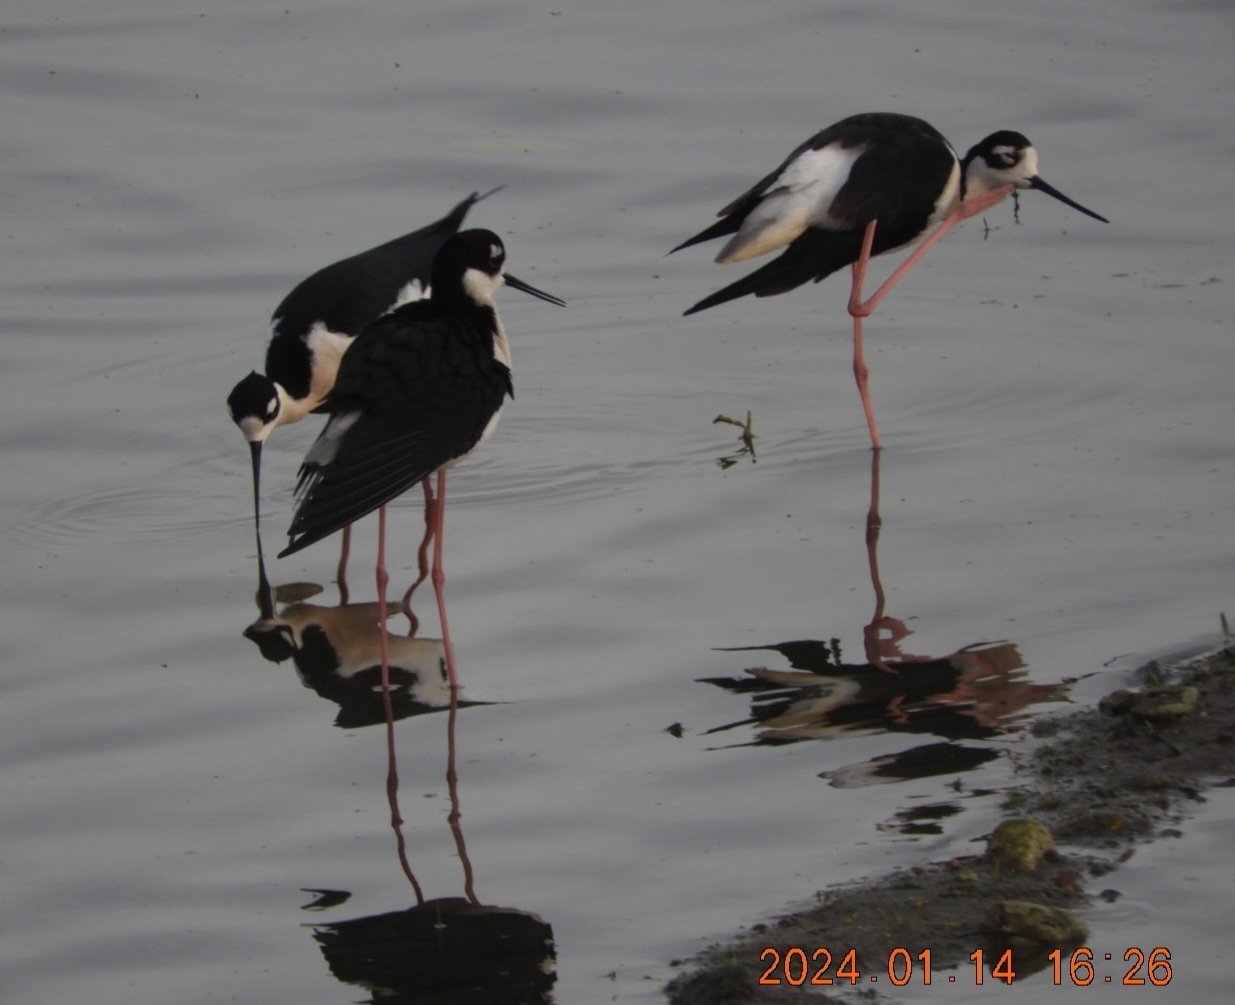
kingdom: Animalia
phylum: Chordata
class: Aves
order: Charadriiformes
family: Recurvirostridae
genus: Himantopus
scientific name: Himantopus mexicanus
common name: Black-necked stilt
